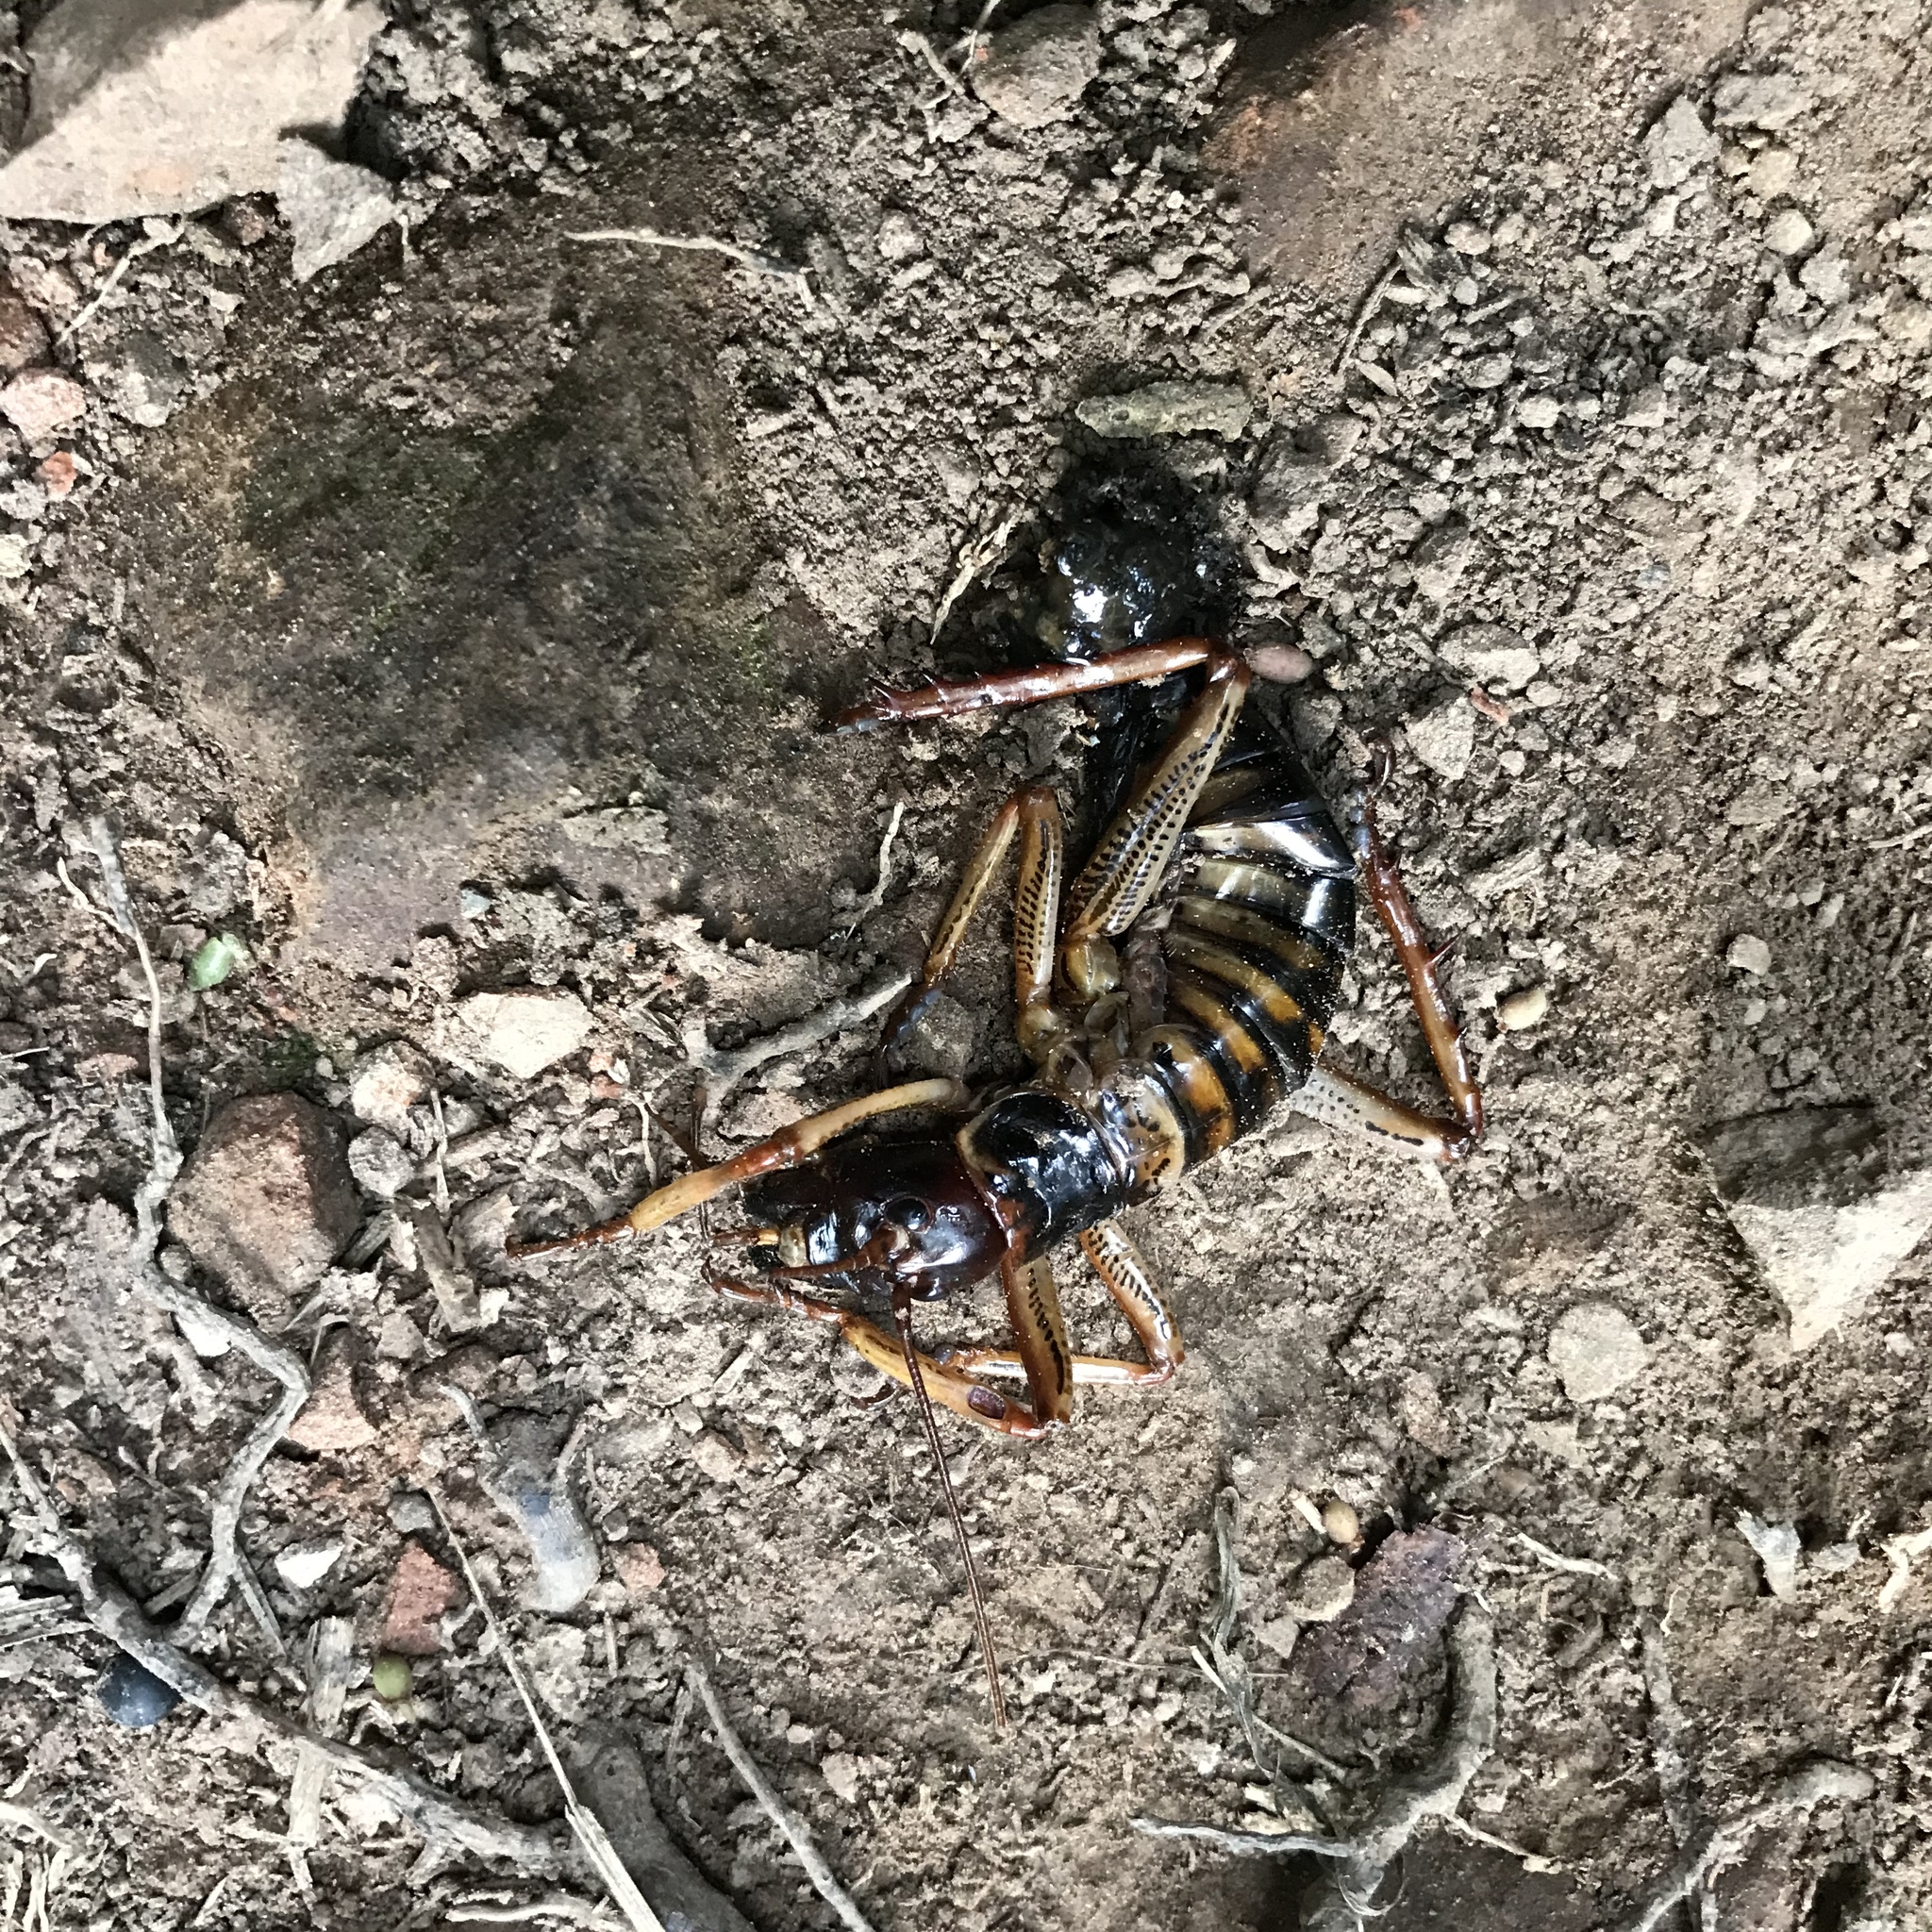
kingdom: Animalia
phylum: Arthropoda
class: Insecta
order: Orthoptera
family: Anostostomatidae
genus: Hemideina
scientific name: Hemideina crassidens
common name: Wellington tree weta
